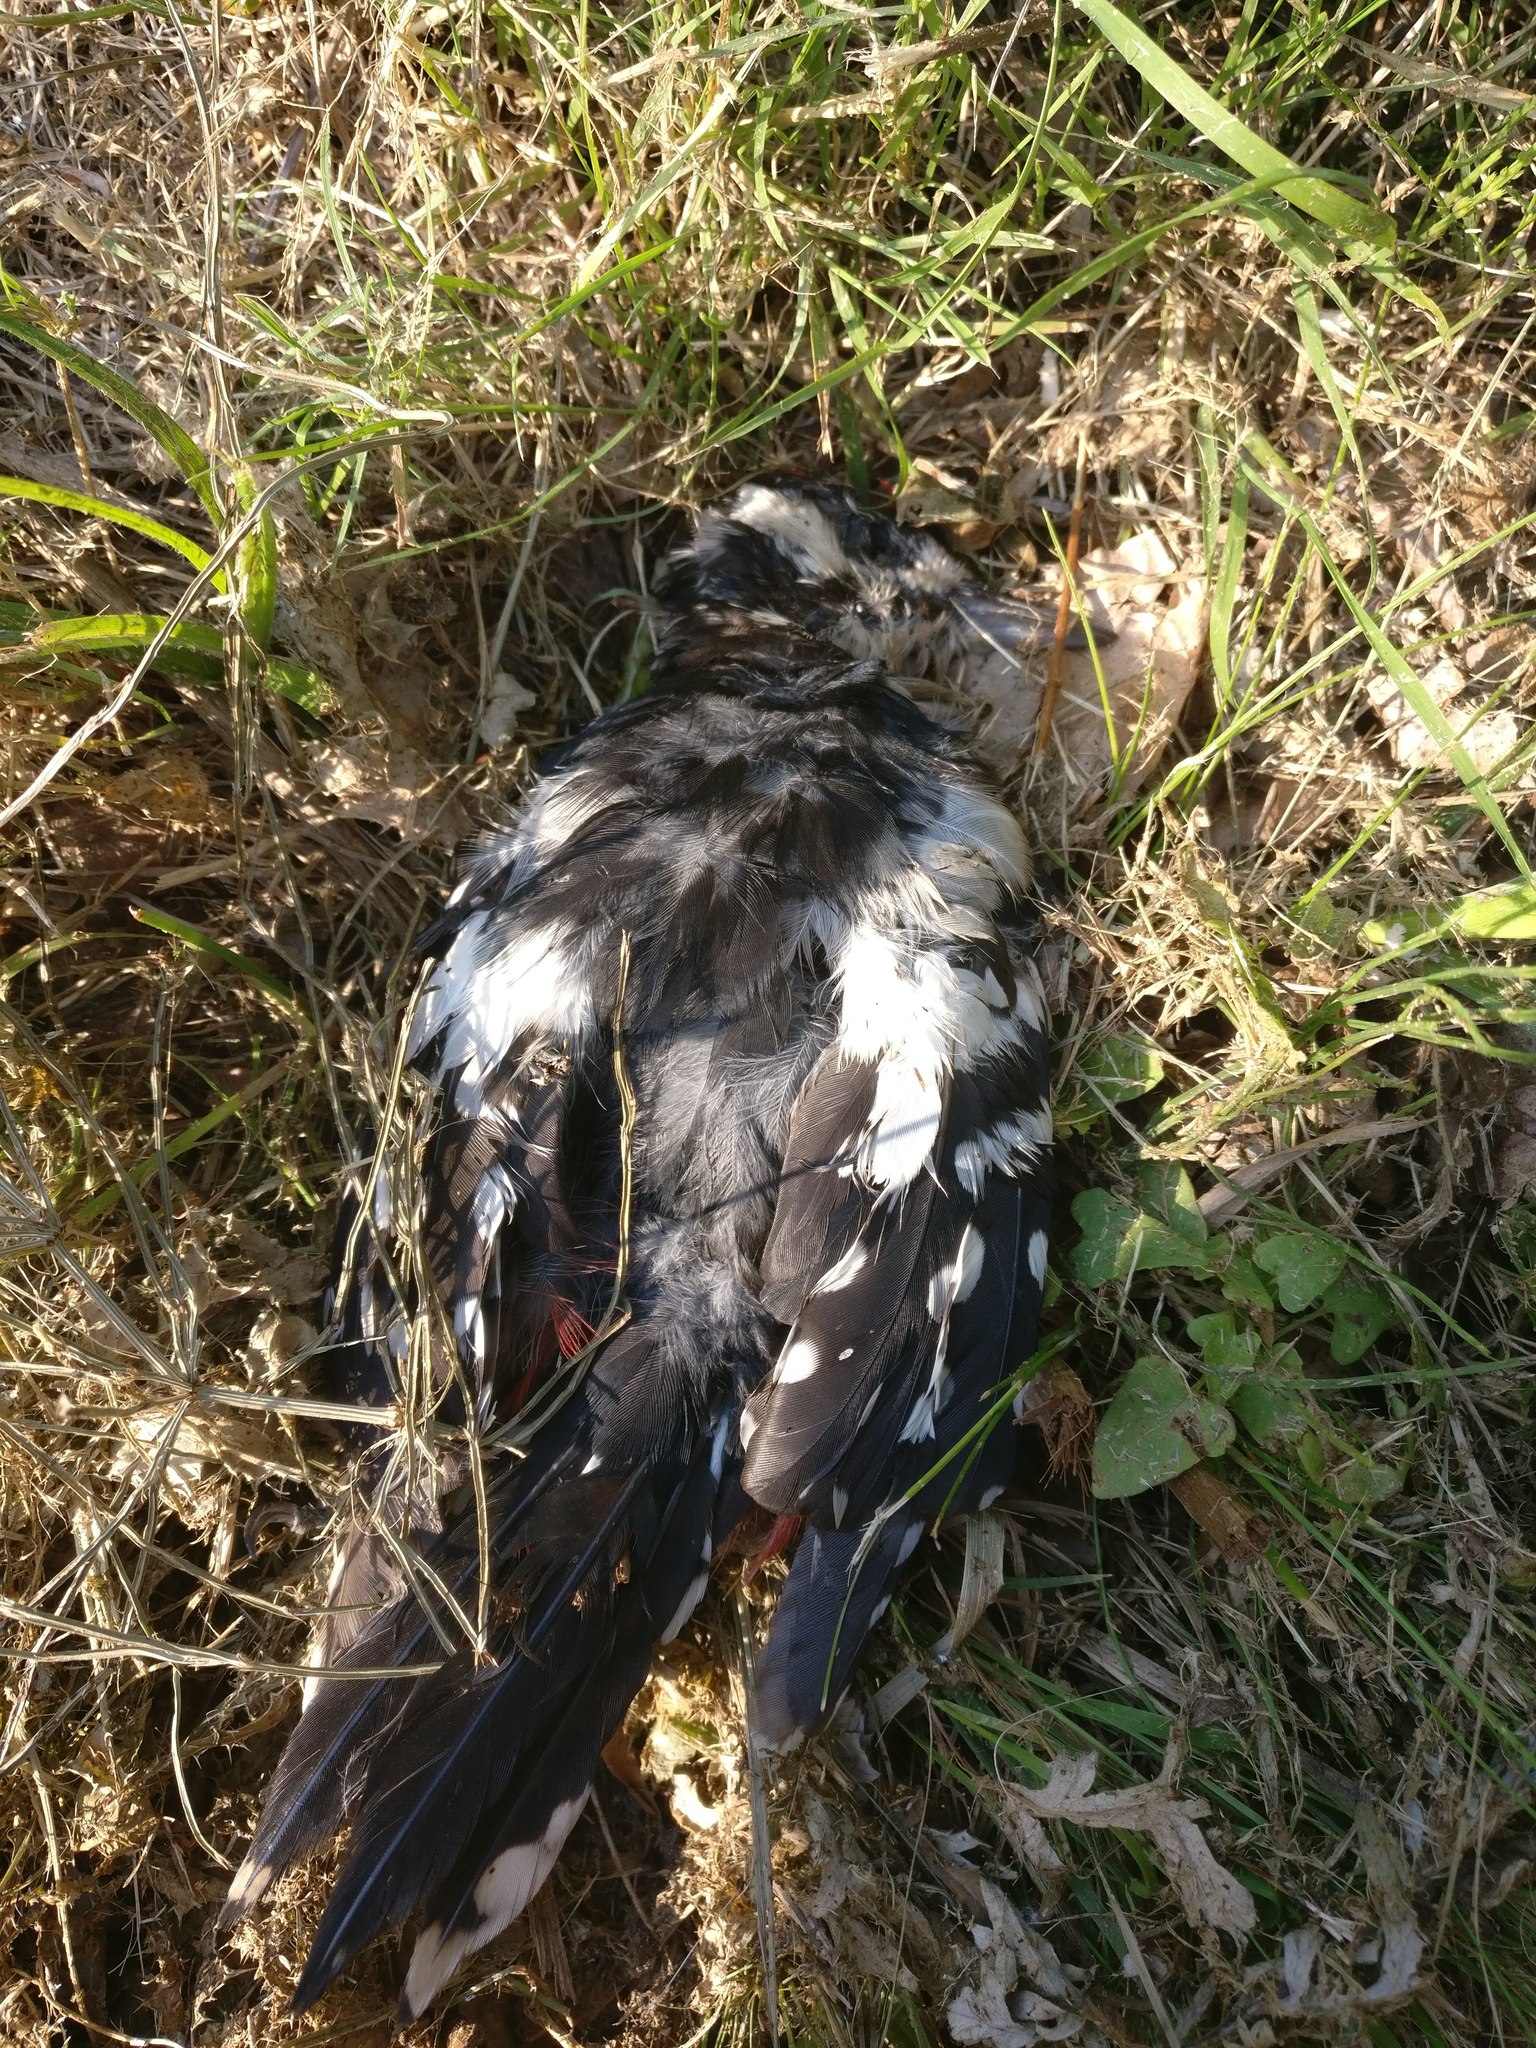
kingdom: Animalia
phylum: Chordata
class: Aves
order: Piciformes
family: Picidae
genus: Dendrocopos
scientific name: Dendrocopos major
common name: Great spotted woodpecker
